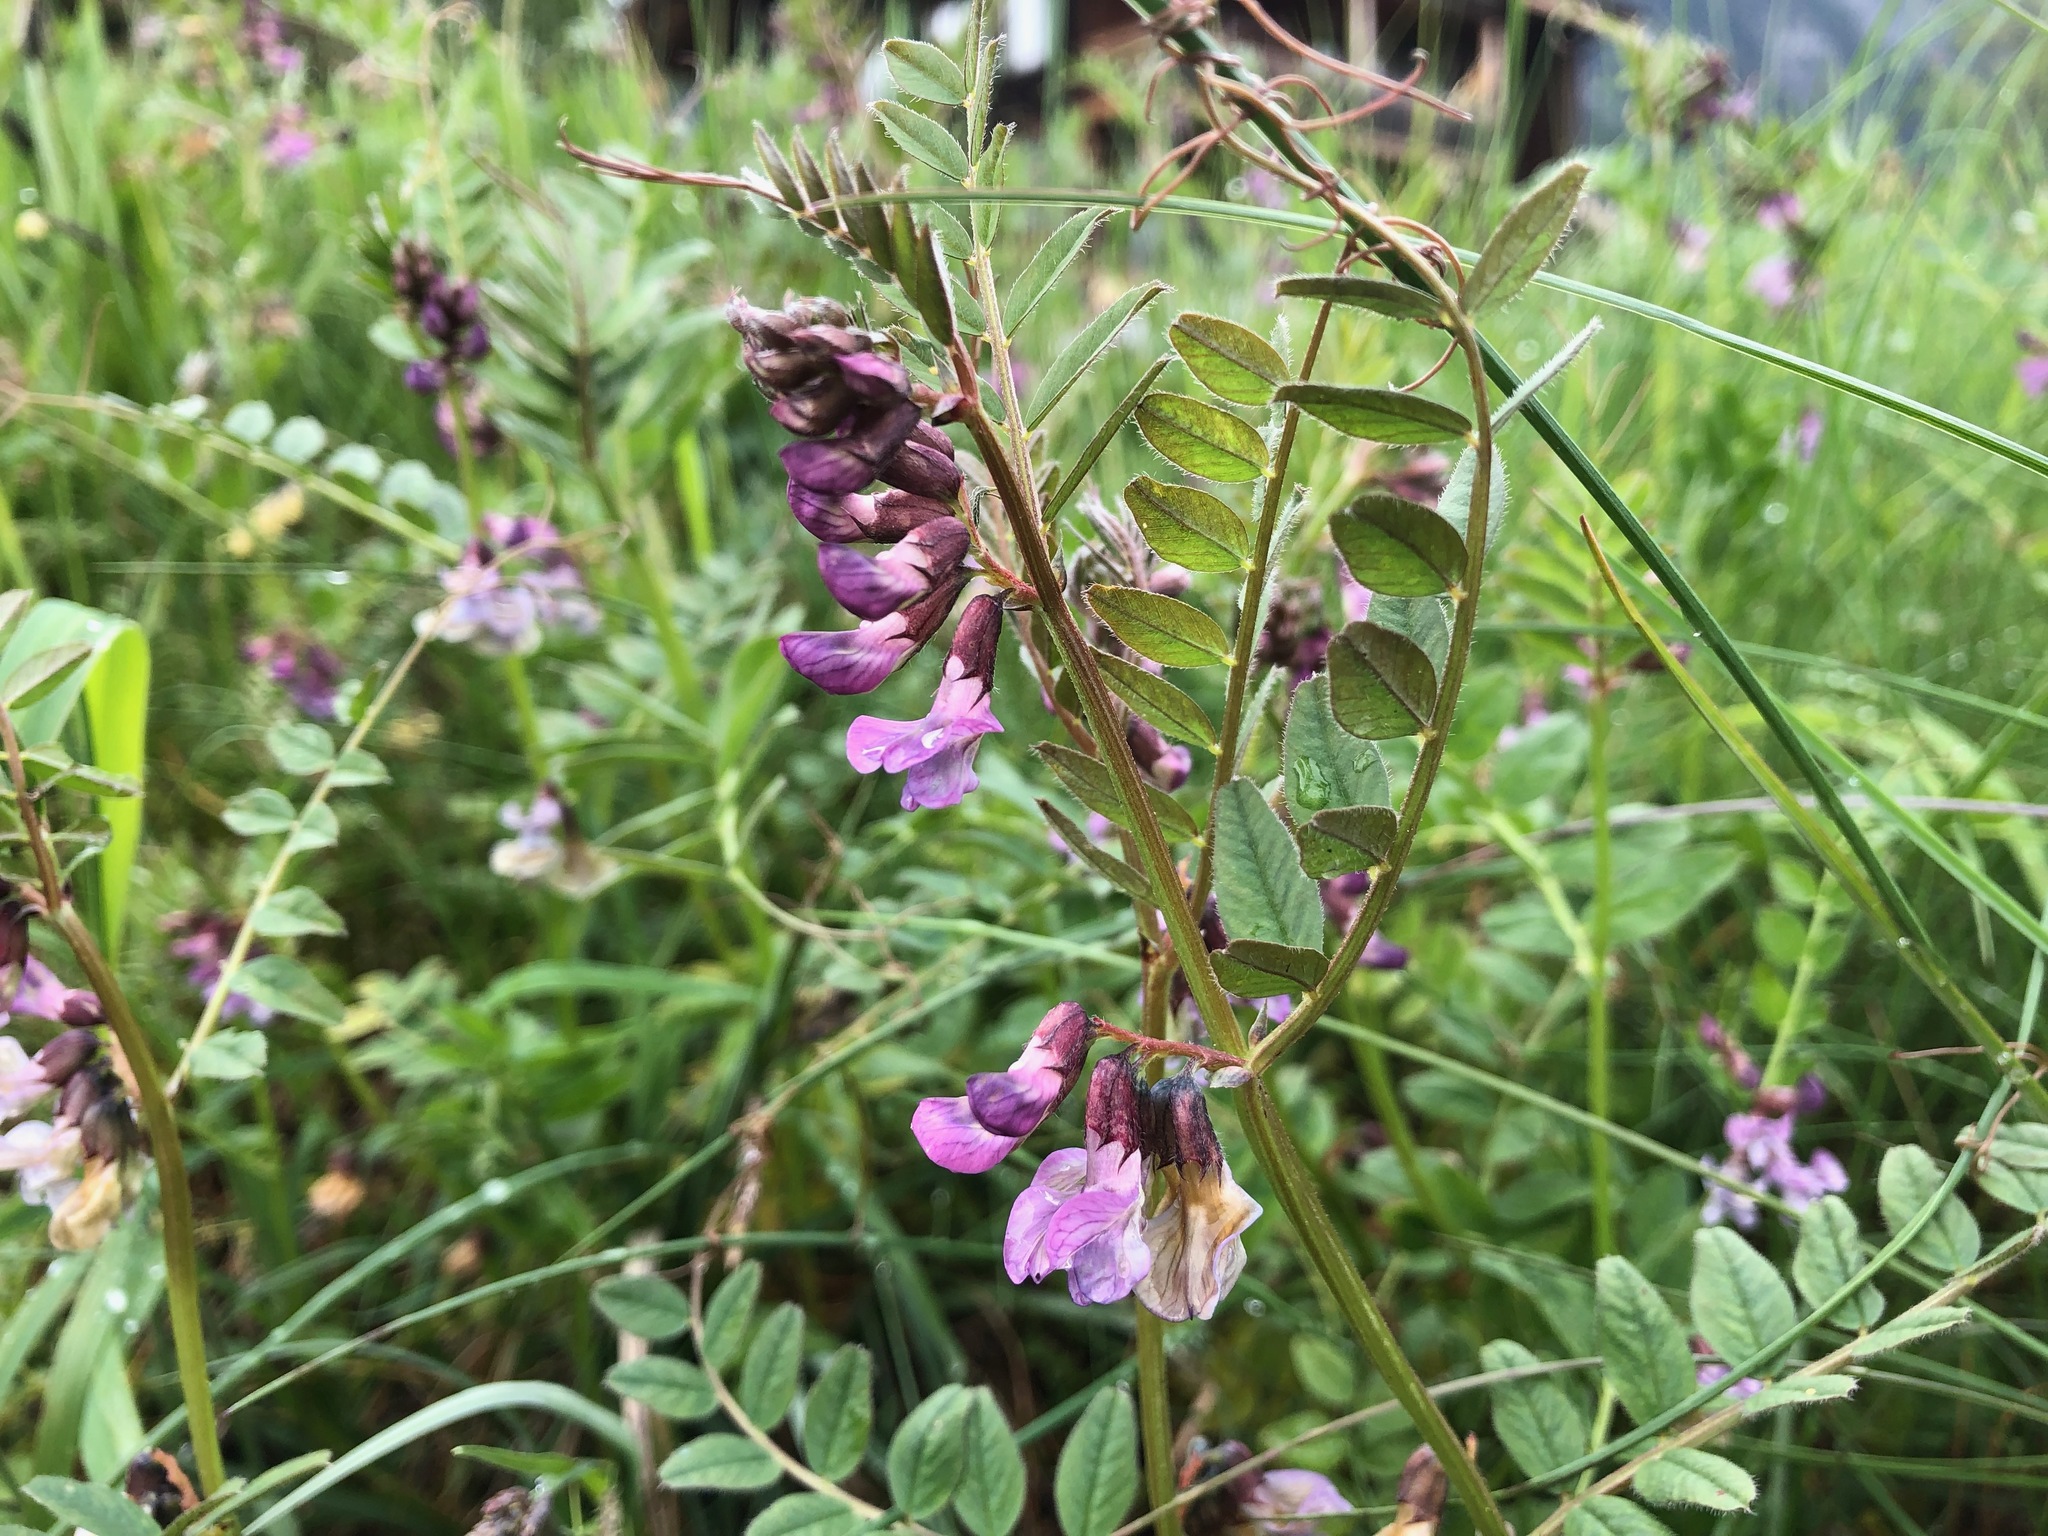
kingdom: Plantae
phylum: Tracheophyta
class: Magnoliopsida
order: Fabales
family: Fabaceae
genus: Vicia
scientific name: Vicia sepium
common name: Bush vetch
